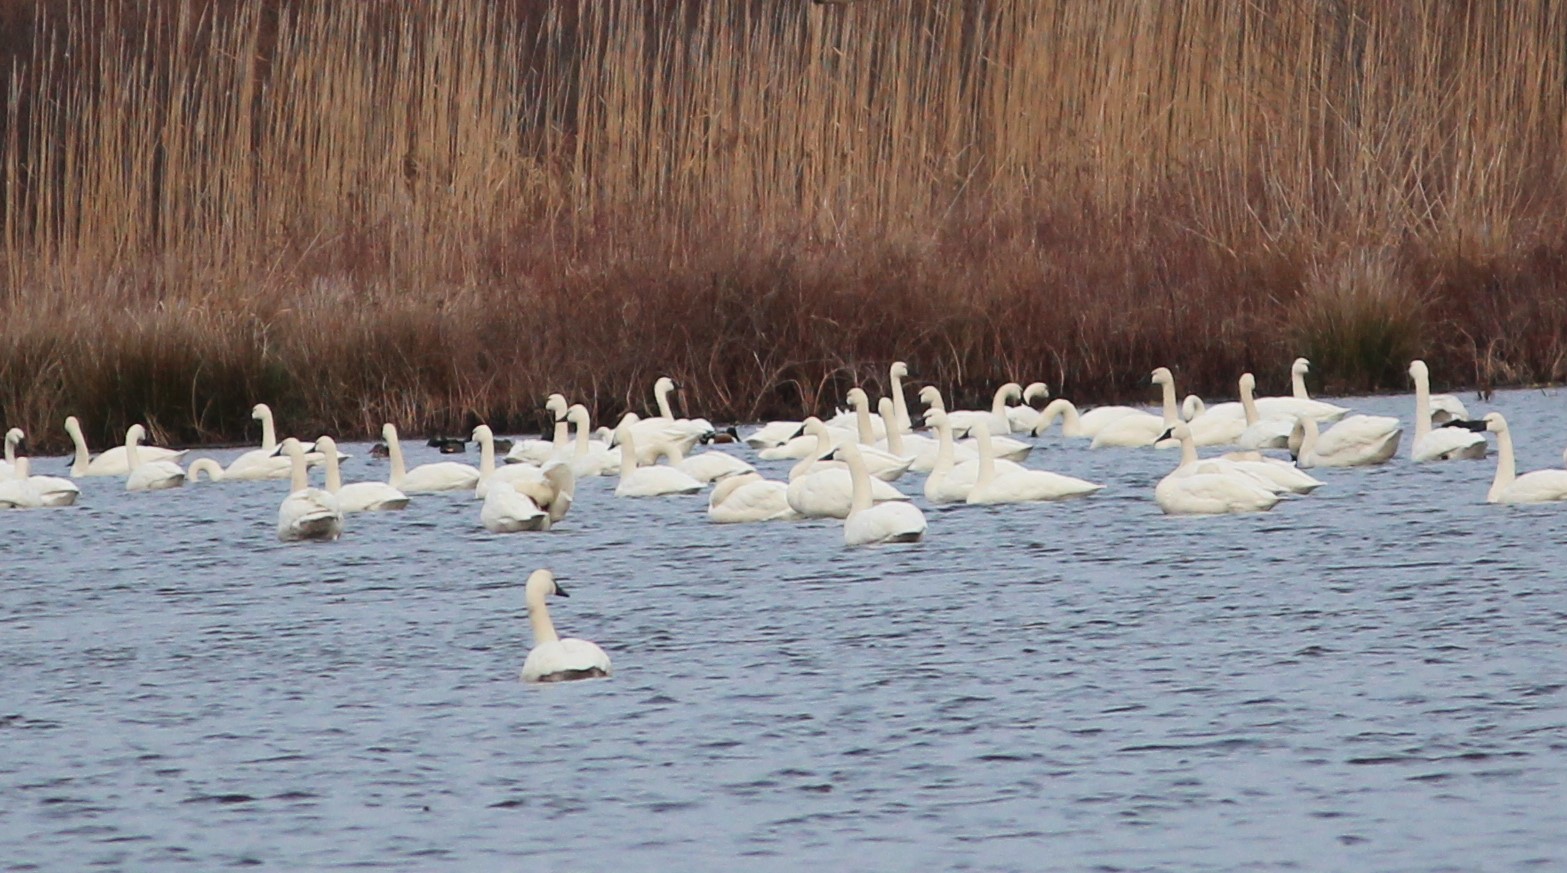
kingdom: Animalia
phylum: Chordata
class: Aves
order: Anseriformes
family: Anatidae
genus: Cygnus
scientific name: Cygnus columbianus
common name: Tundra swan
